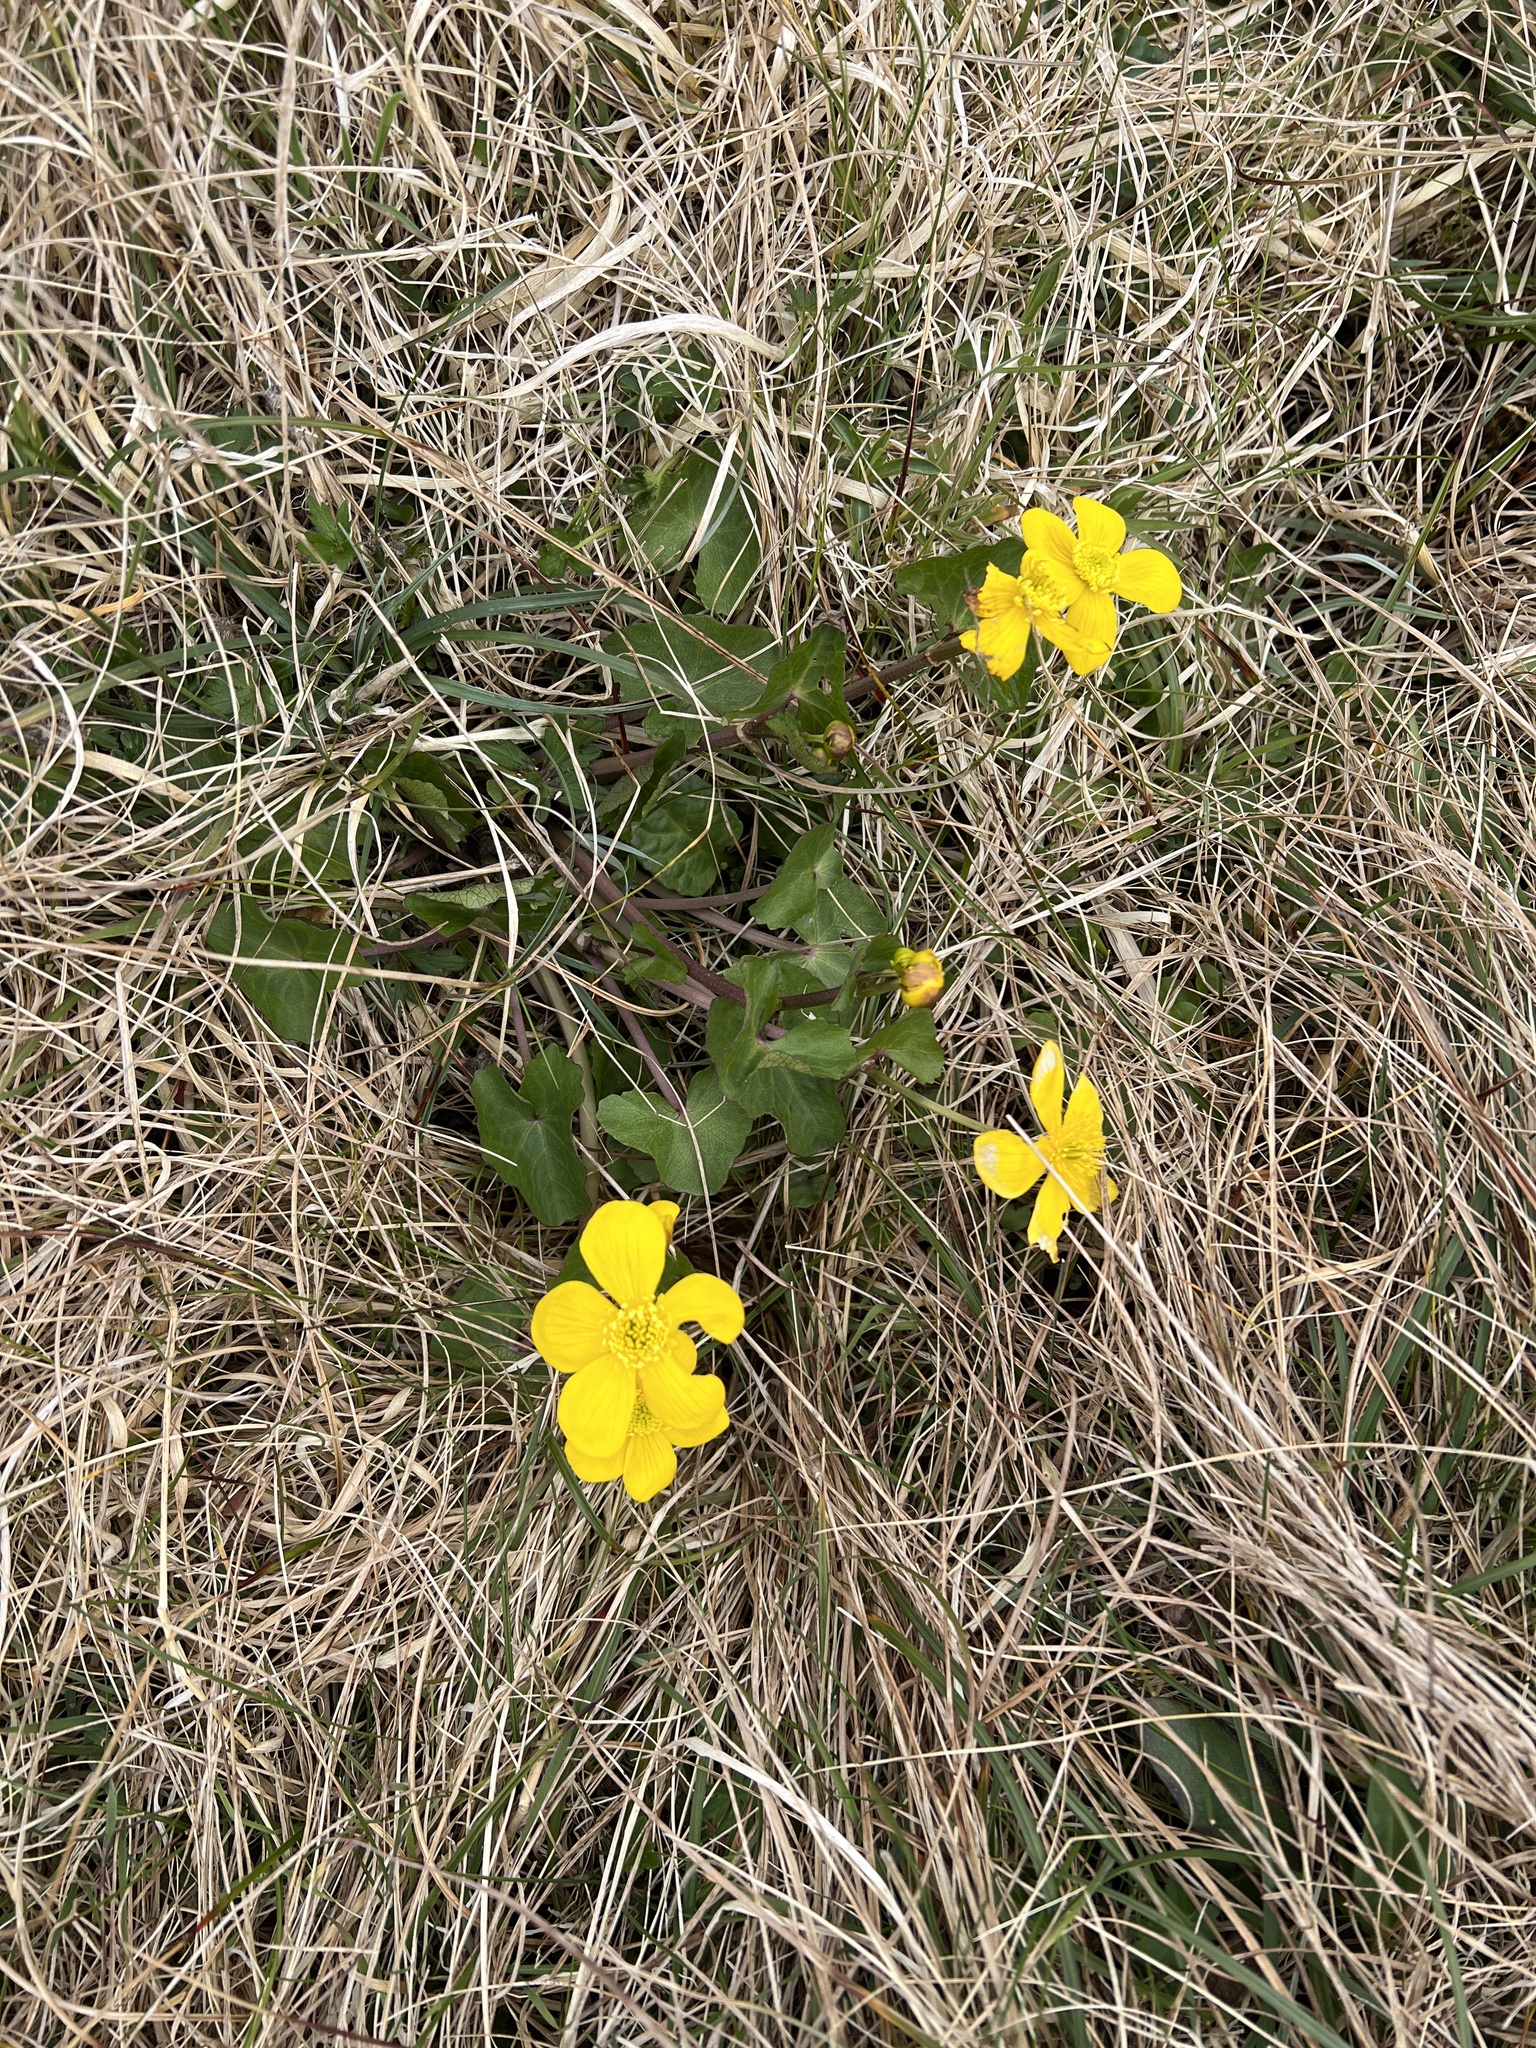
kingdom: Plantae
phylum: Tracheophyta
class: Magnoliopsida
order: Ranunculales
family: Ranunculaceae
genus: Caltha
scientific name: Caltha palustris
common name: Marsh marigold
